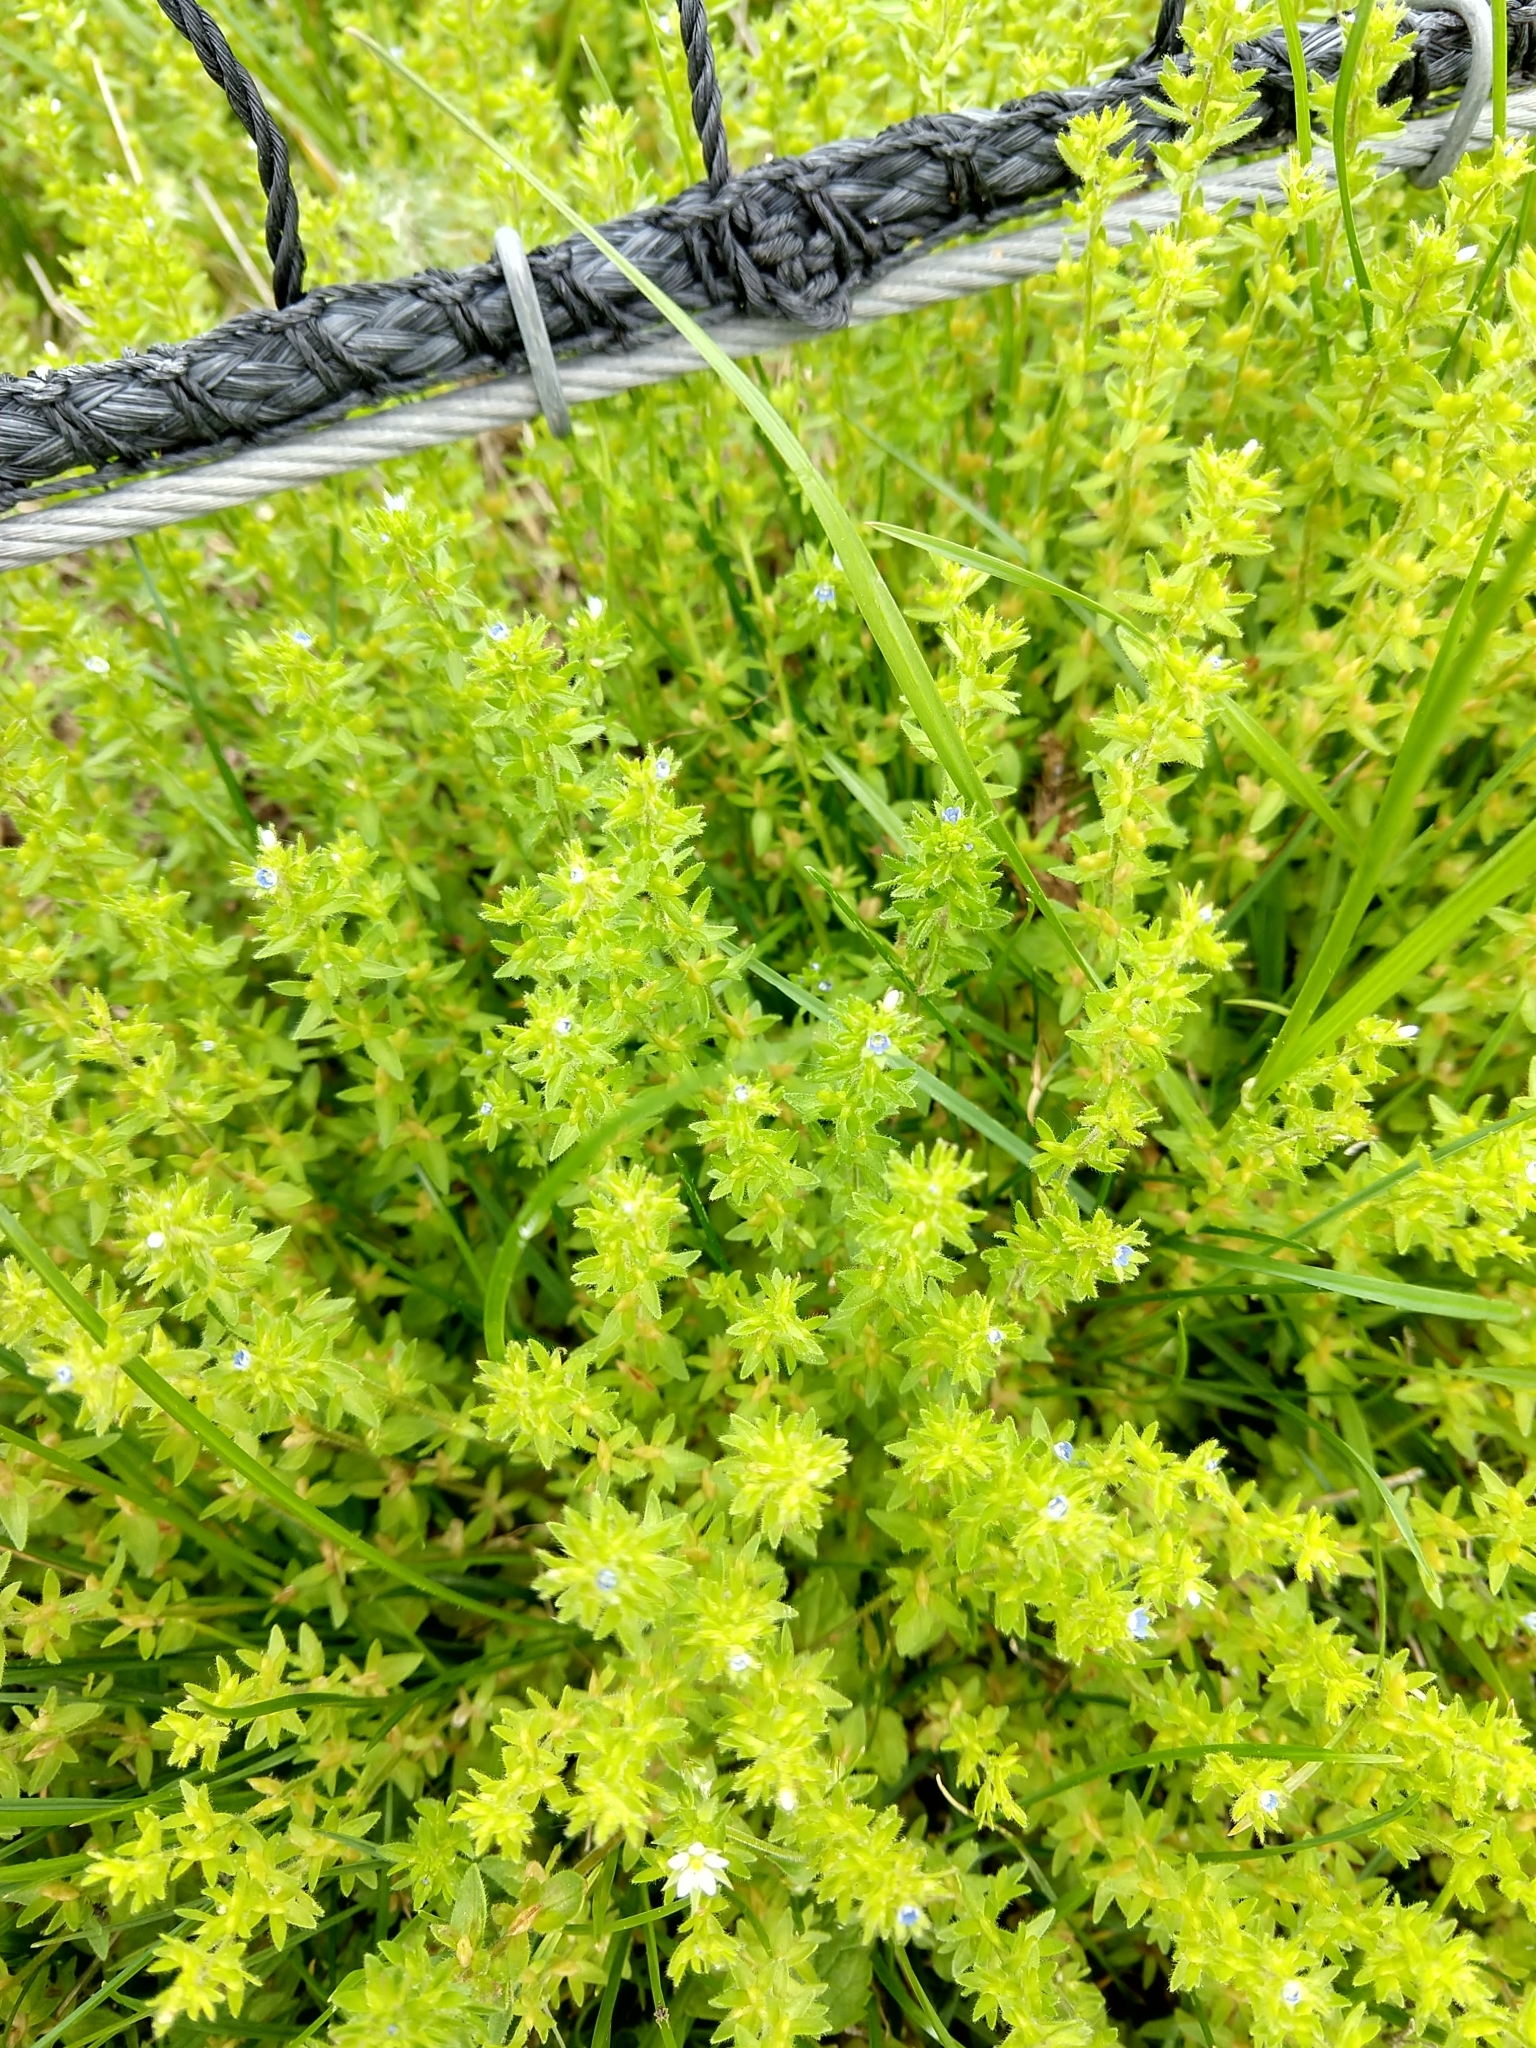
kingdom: Plantae
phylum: Tracheophyta
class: Magnoliopsida
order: Lamiales
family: Plantaginaceae
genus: Veronica
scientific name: Veronica arvensis
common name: Corn speedwell
